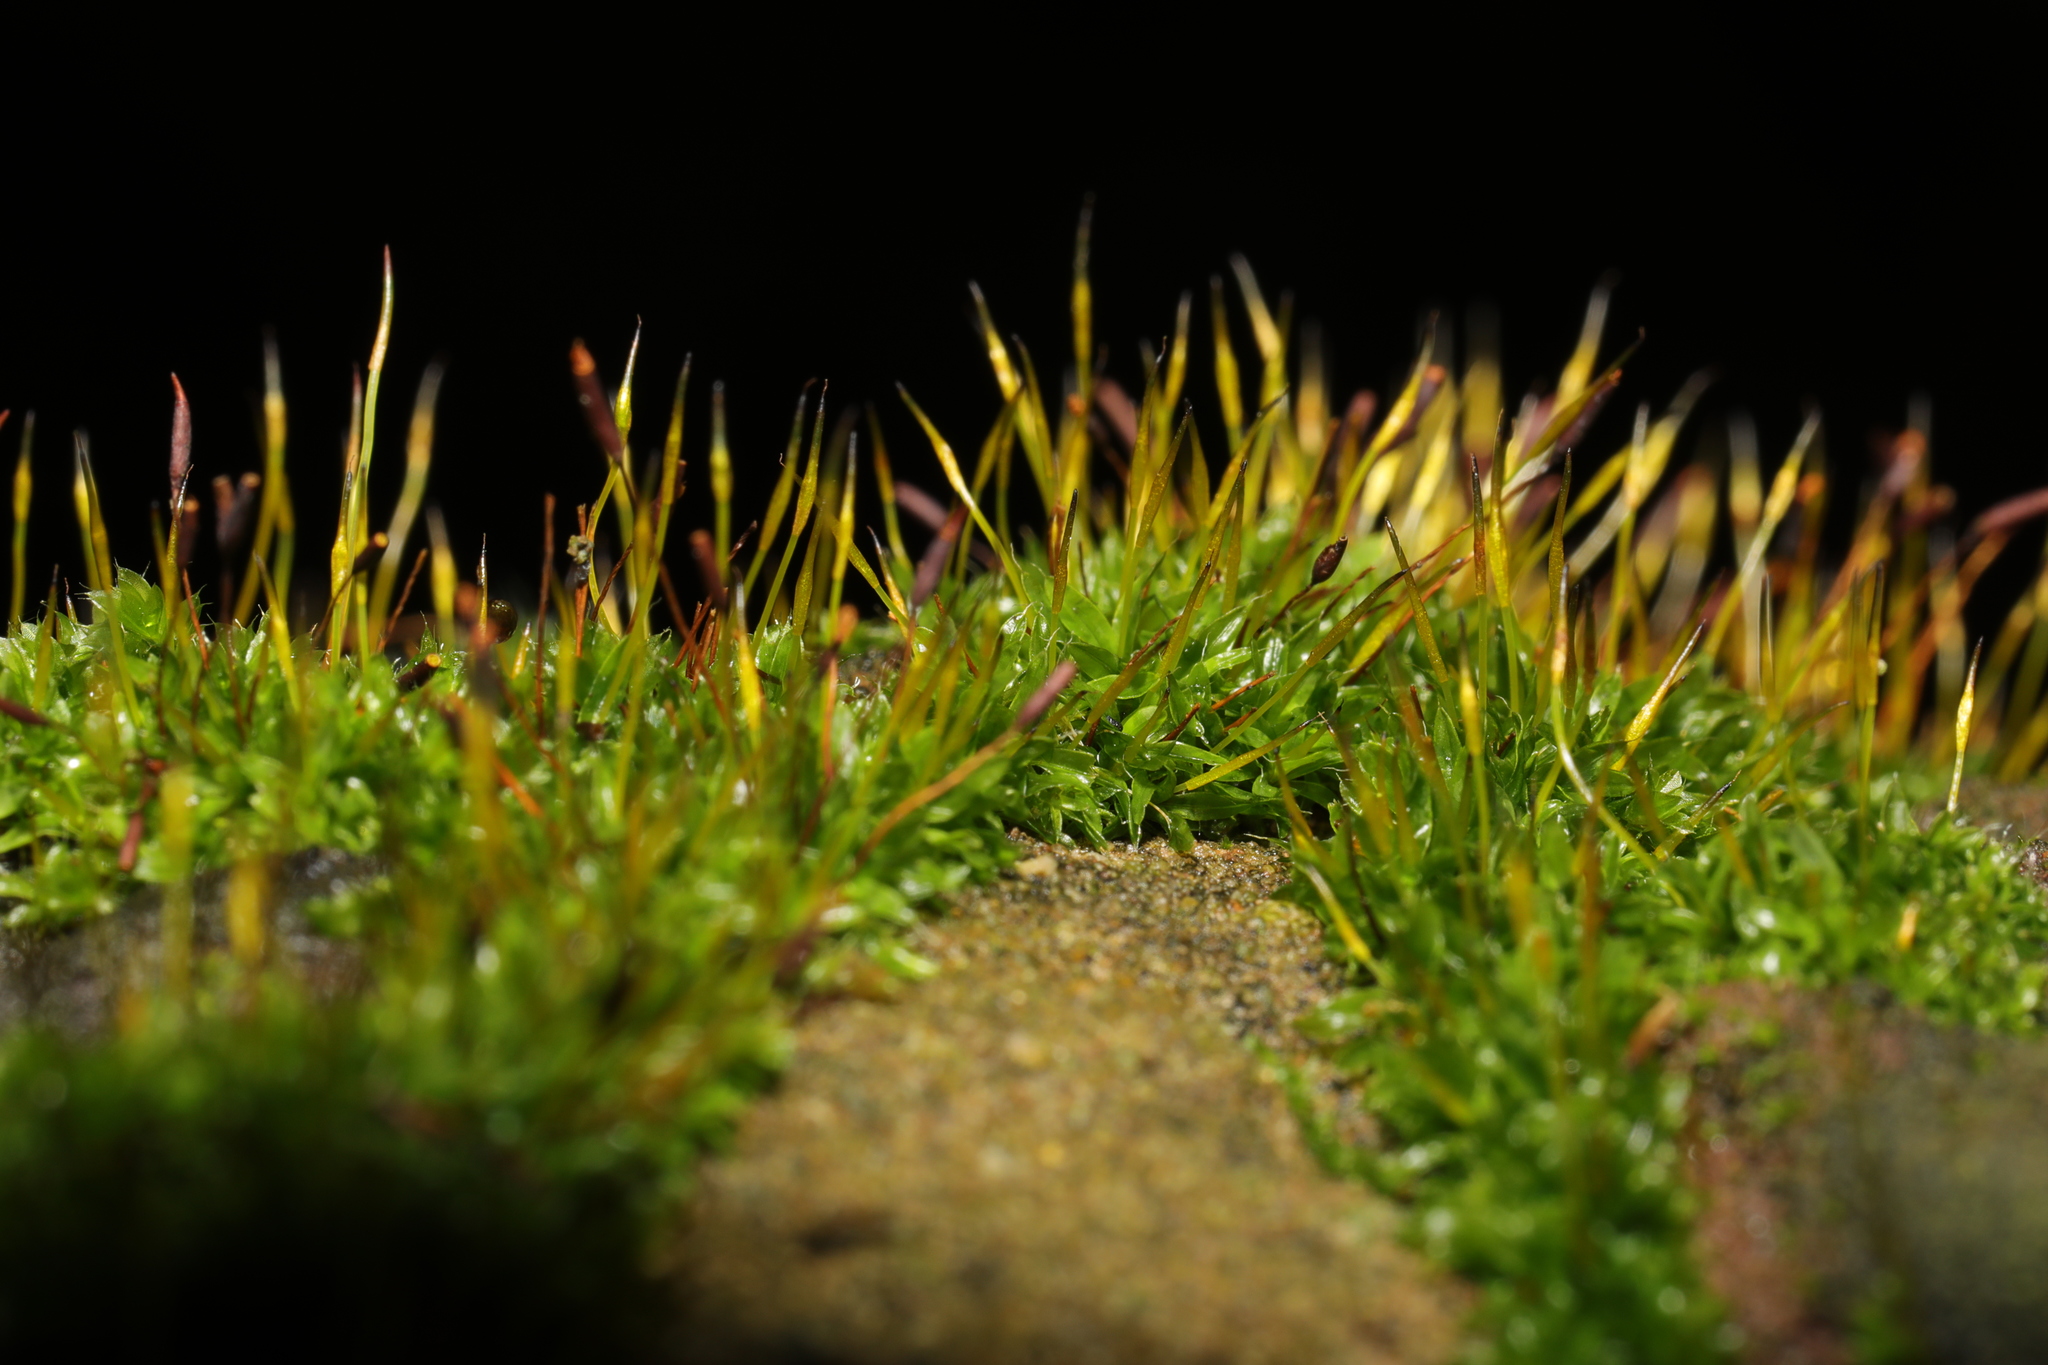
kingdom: Plantae
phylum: Bryophyta
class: Bryopsida
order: Pottiales
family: Pottiaceae
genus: Tortula
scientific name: Tortula muralis
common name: Wall screw-moss
